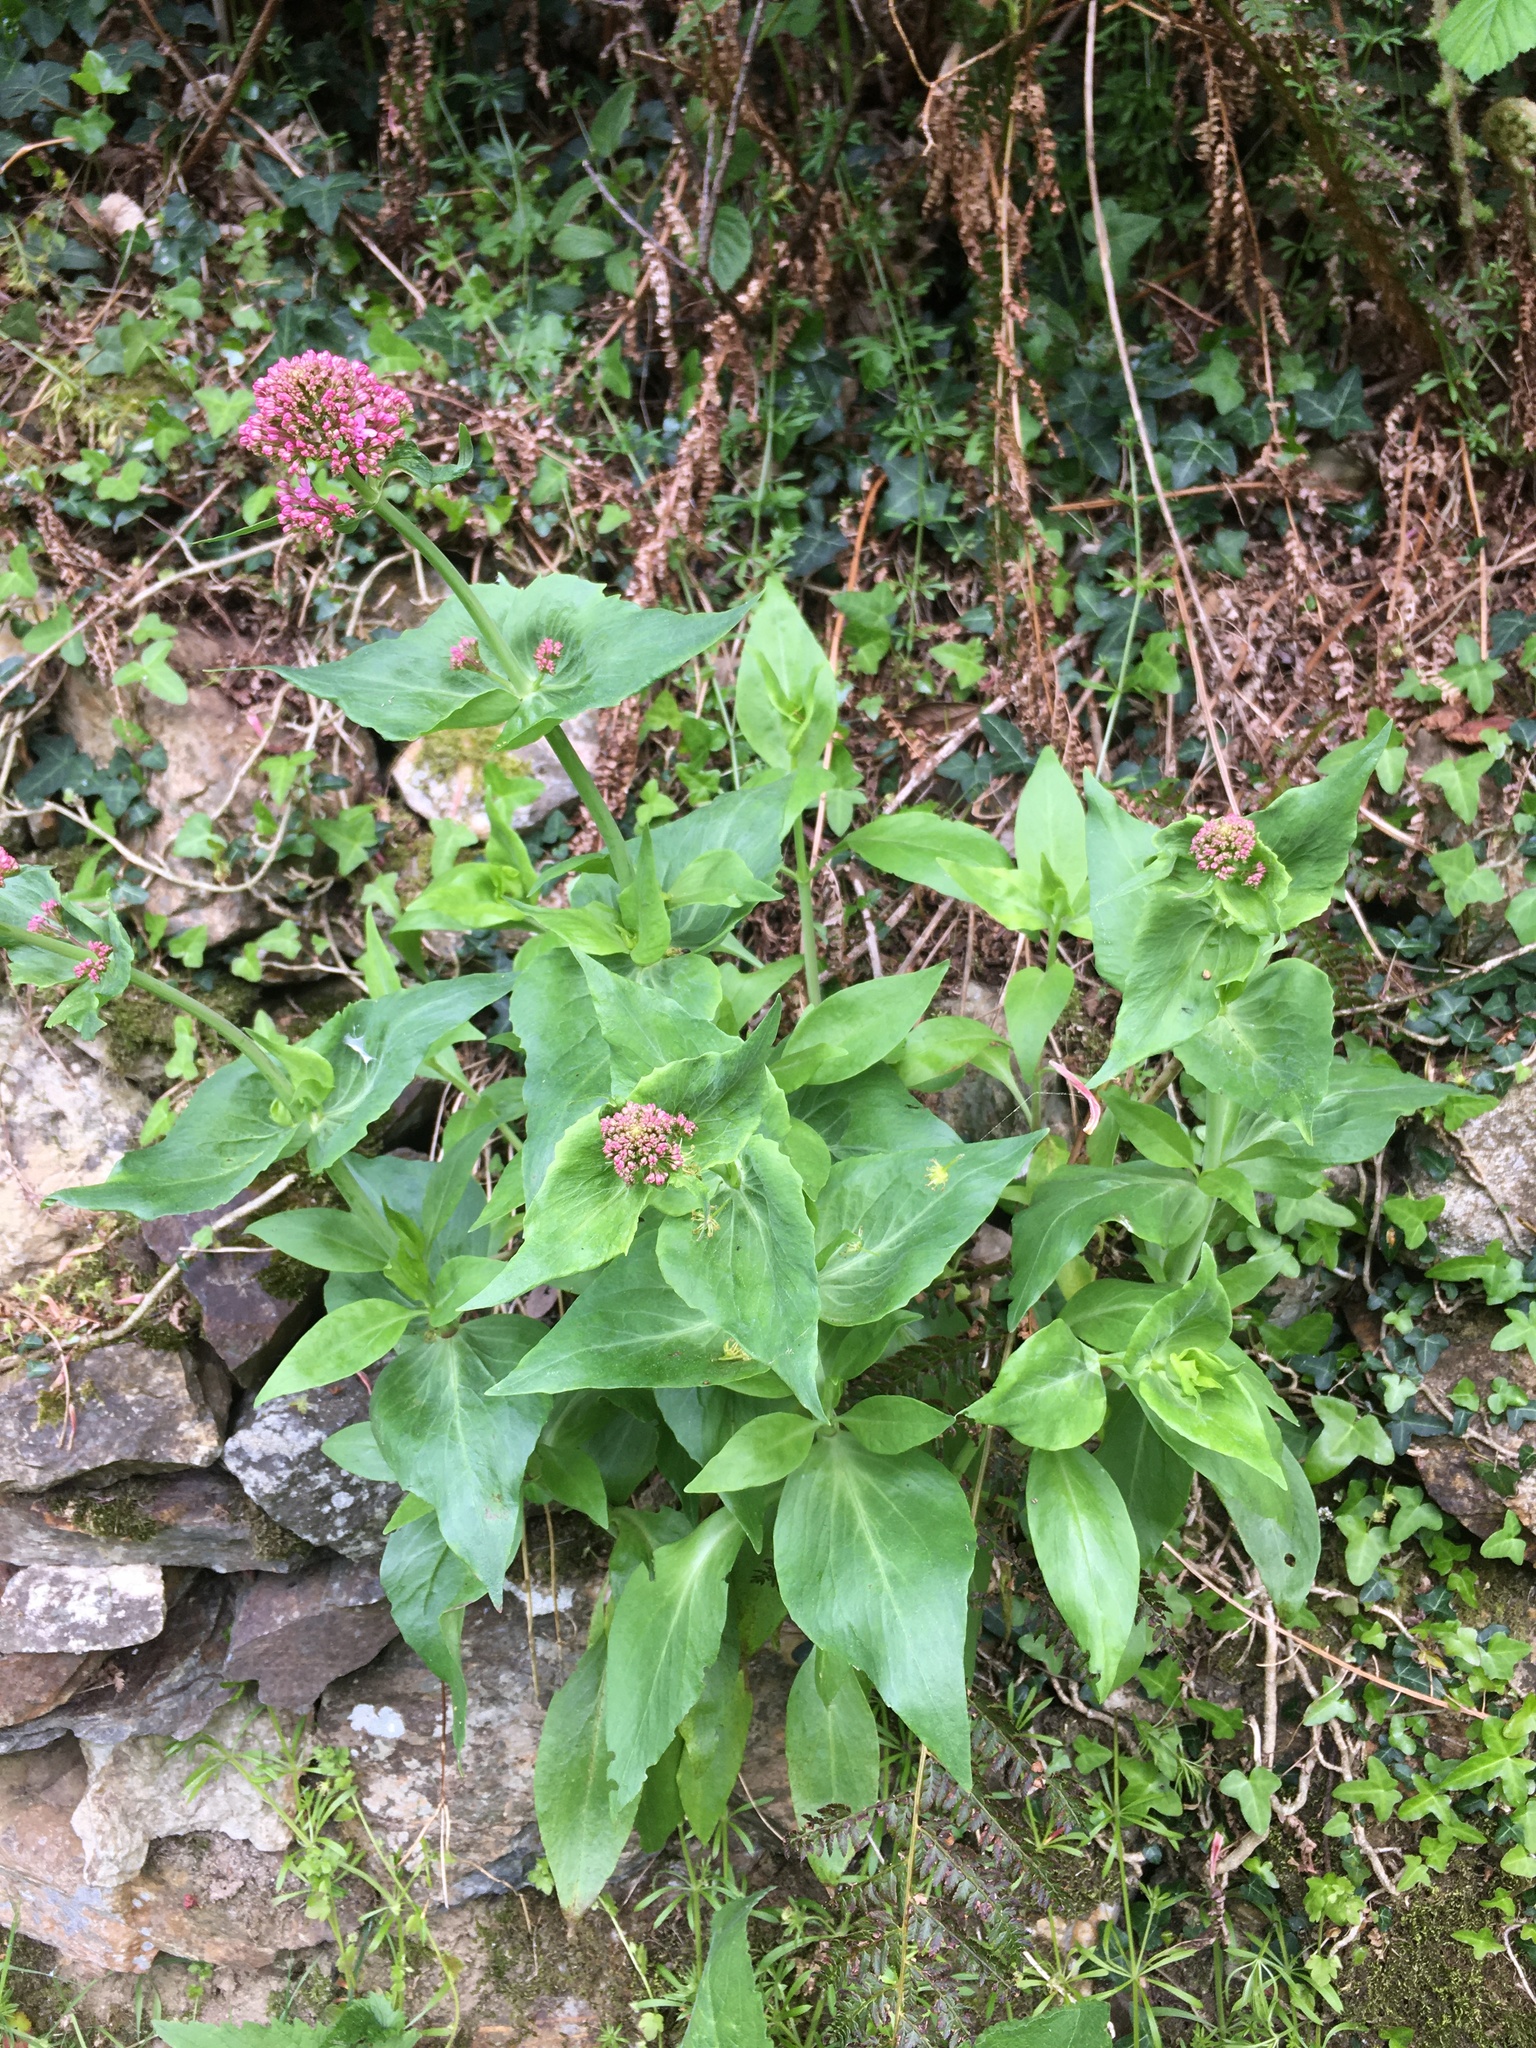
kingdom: Plantae
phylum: Tracheophyta
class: Magnoliopsida
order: Dipsacales
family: Caprifoliaceae
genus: Centranthus
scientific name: Centranthus ruber
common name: Red valerian
